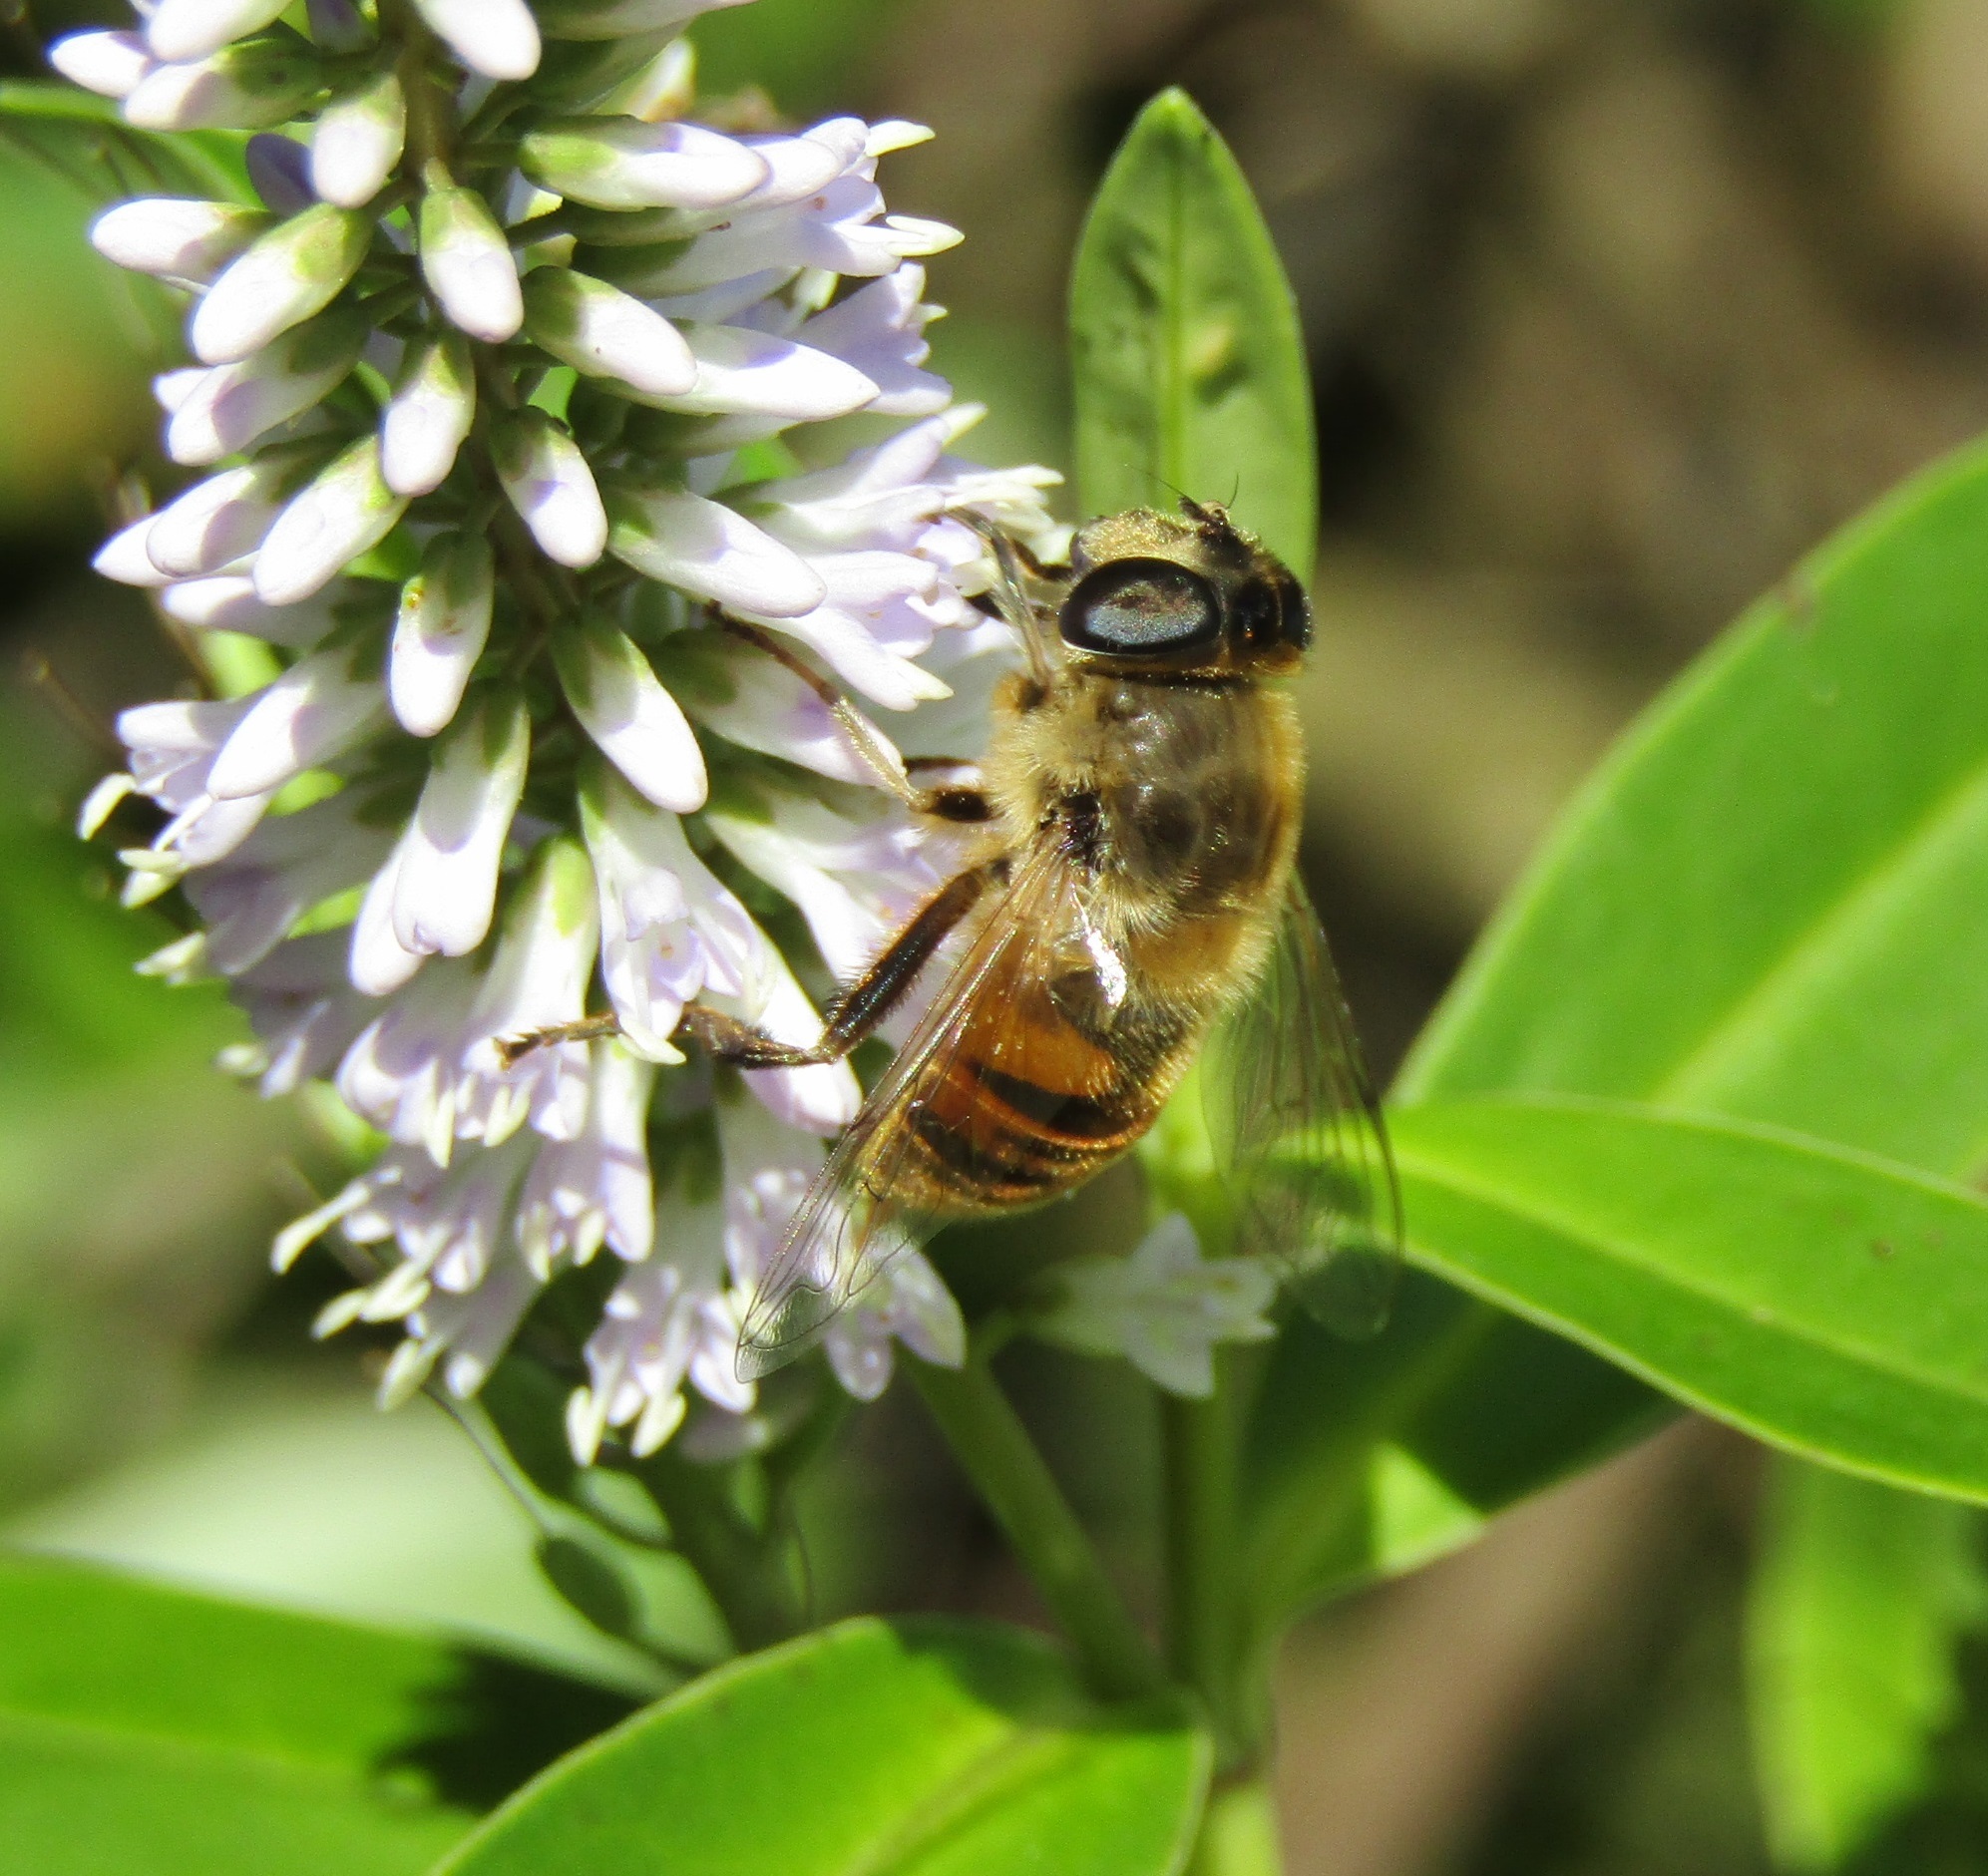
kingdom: Animalia
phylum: Arthropoda
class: Insecta
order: Diptera
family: Syrphidae
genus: Eristalis
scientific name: Eristalis tenax
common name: Drone fly
